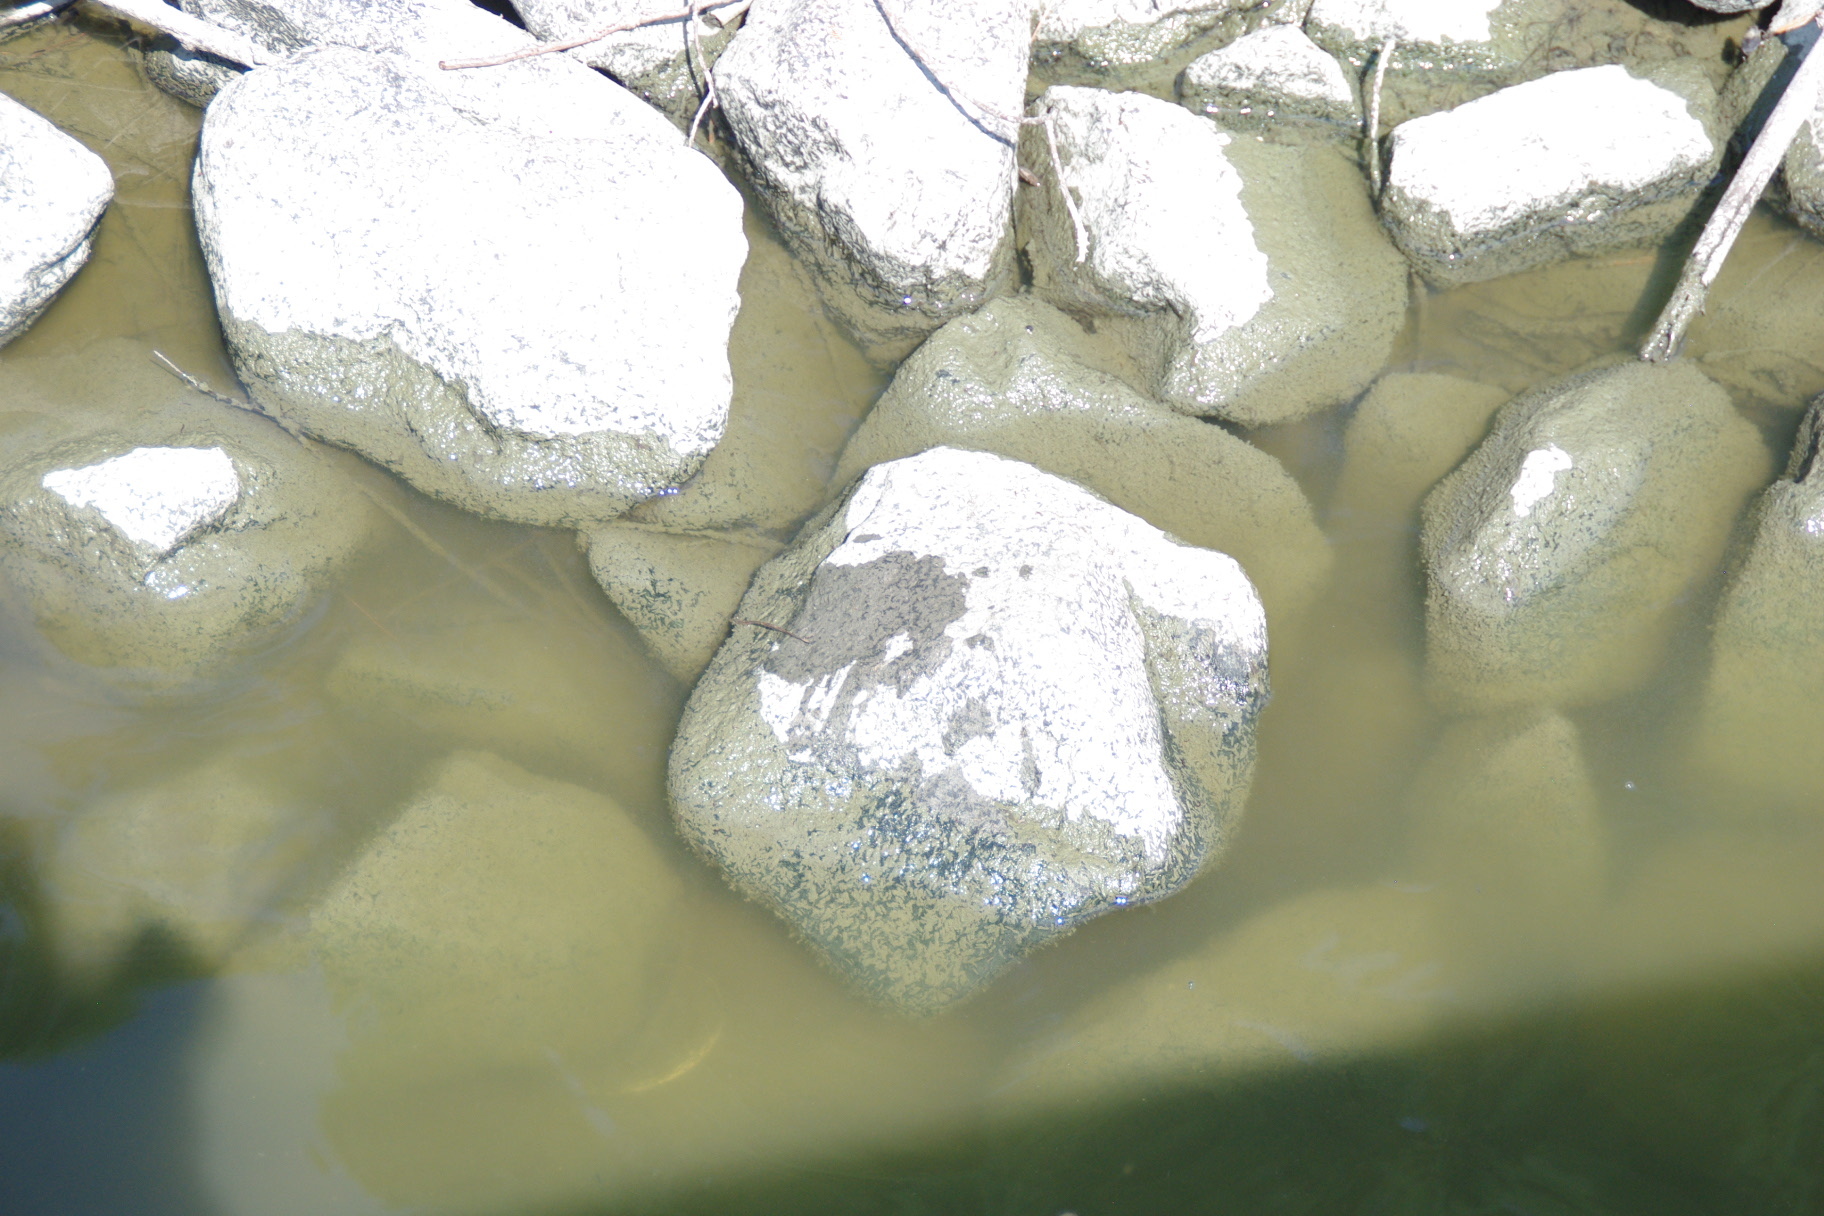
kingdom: Animalia
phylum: Chordata
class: Testudines
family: Emydidae
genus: Pseudemys
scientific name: Pseudemys
